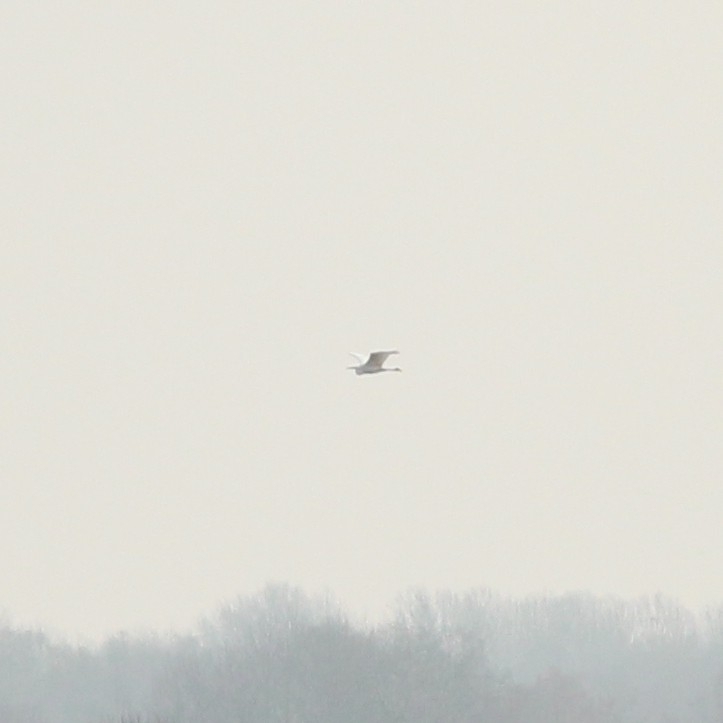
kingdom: Animalia
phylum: Chordata
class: Aves
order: Pelecaniformes
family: Ardeidae
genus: Ardea
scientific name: Ardea alba
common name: Great egret
